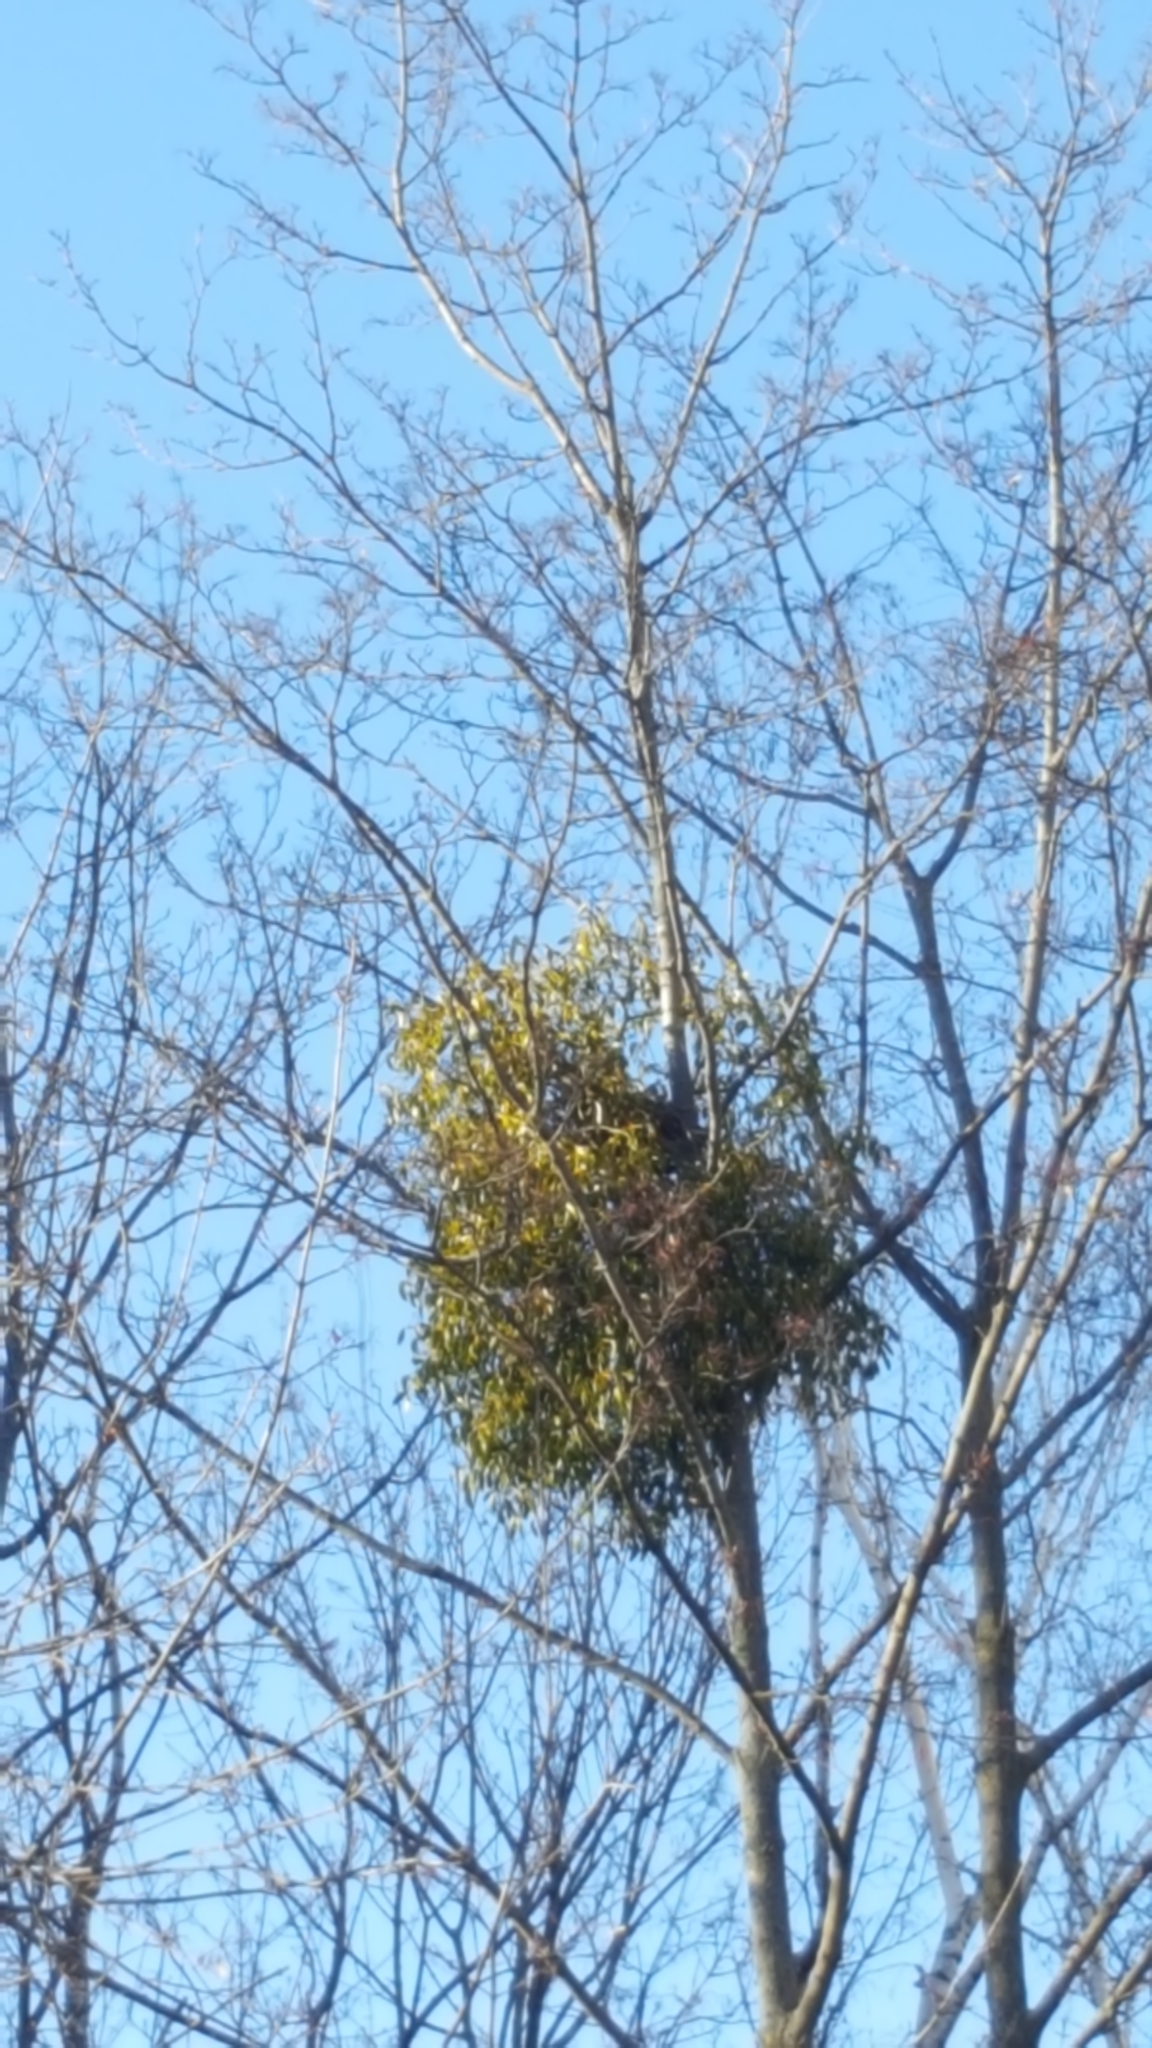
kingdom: Plantae
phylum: Tracheophyta
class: Magnoliopsida
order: Santalales
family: Viscaceae
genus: Viscum
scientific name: Viscum album
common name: Mistletoe
